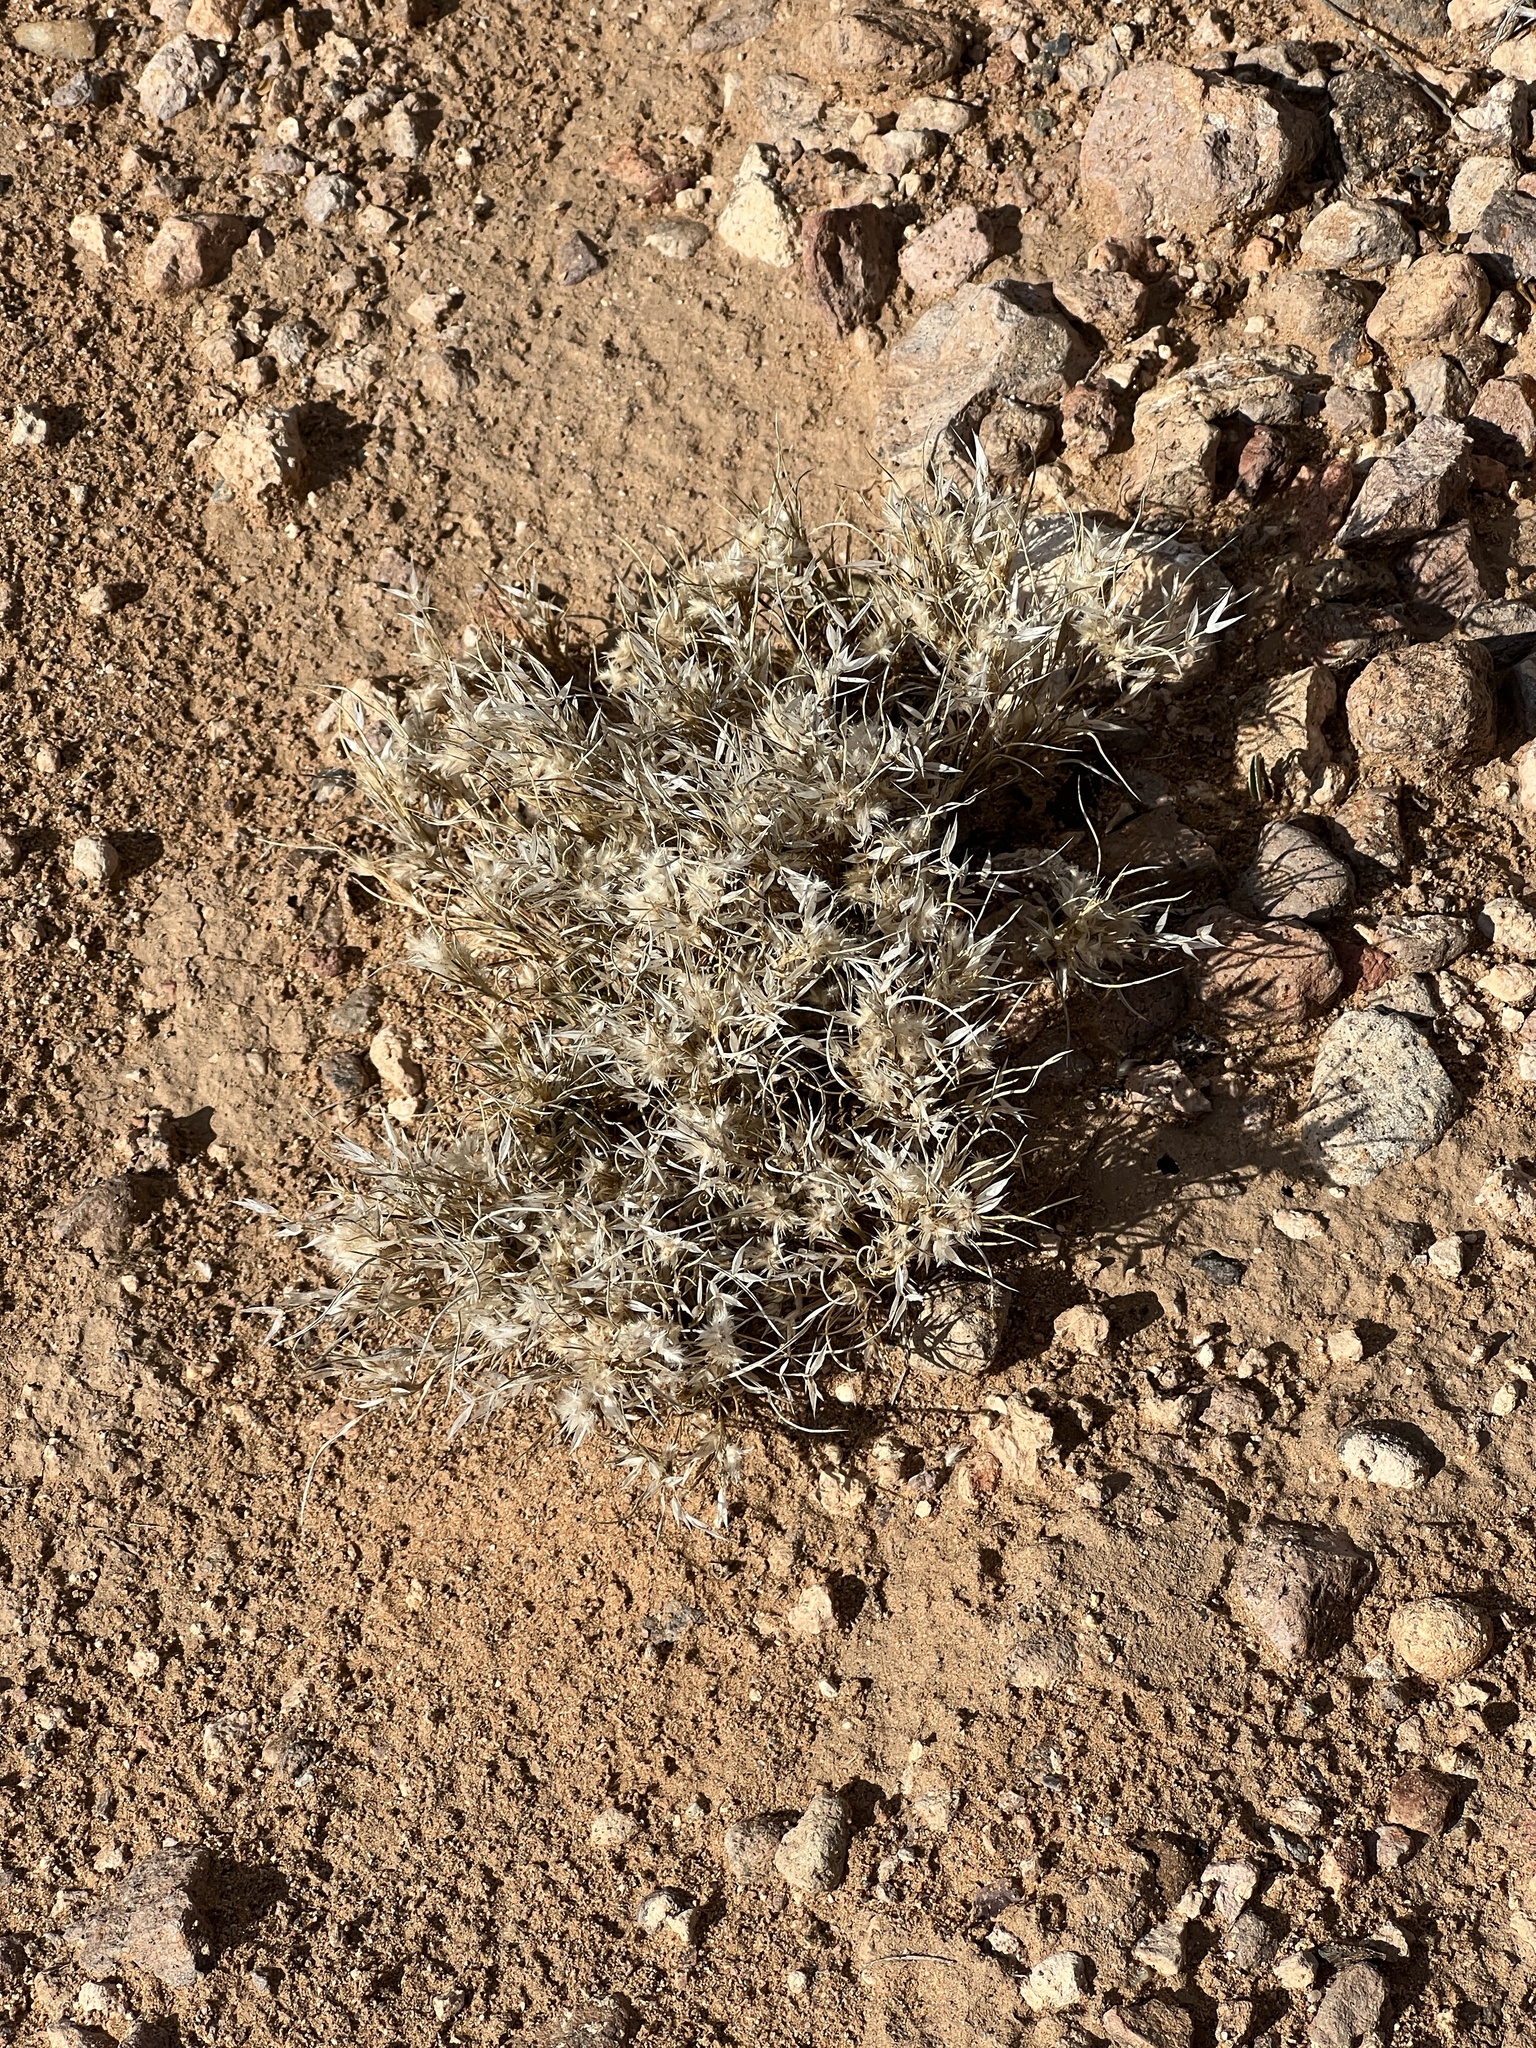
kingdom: Plantae
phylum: Tracheophyta
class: Liliopsida
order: Poales
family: Poaceae
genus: Dasyochloa
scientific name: Dasyochloa pulchella
